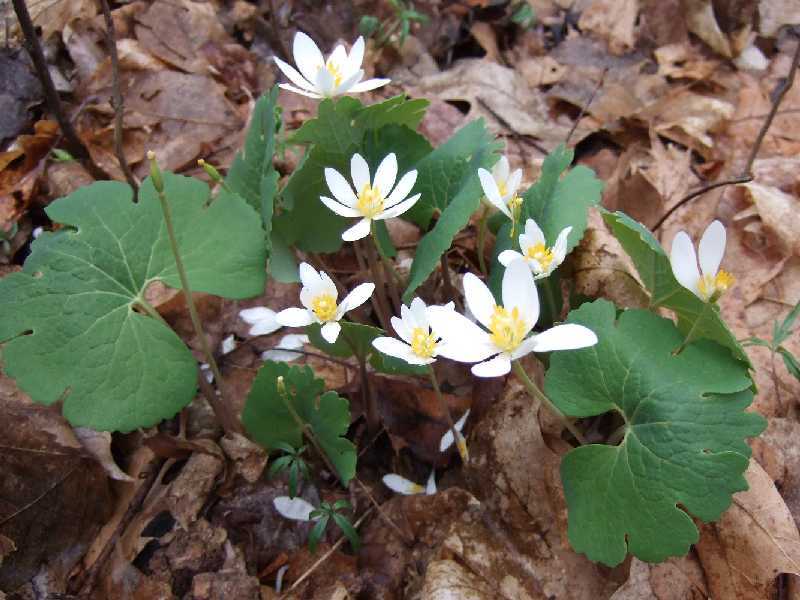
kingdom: Plantae
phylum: Tracheophyta
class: Magnoliopsida
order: Ranunculales
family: Papaveraceae
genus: Sanguinaria
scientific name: Sanguinaria canadensis
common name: Bloodroot
